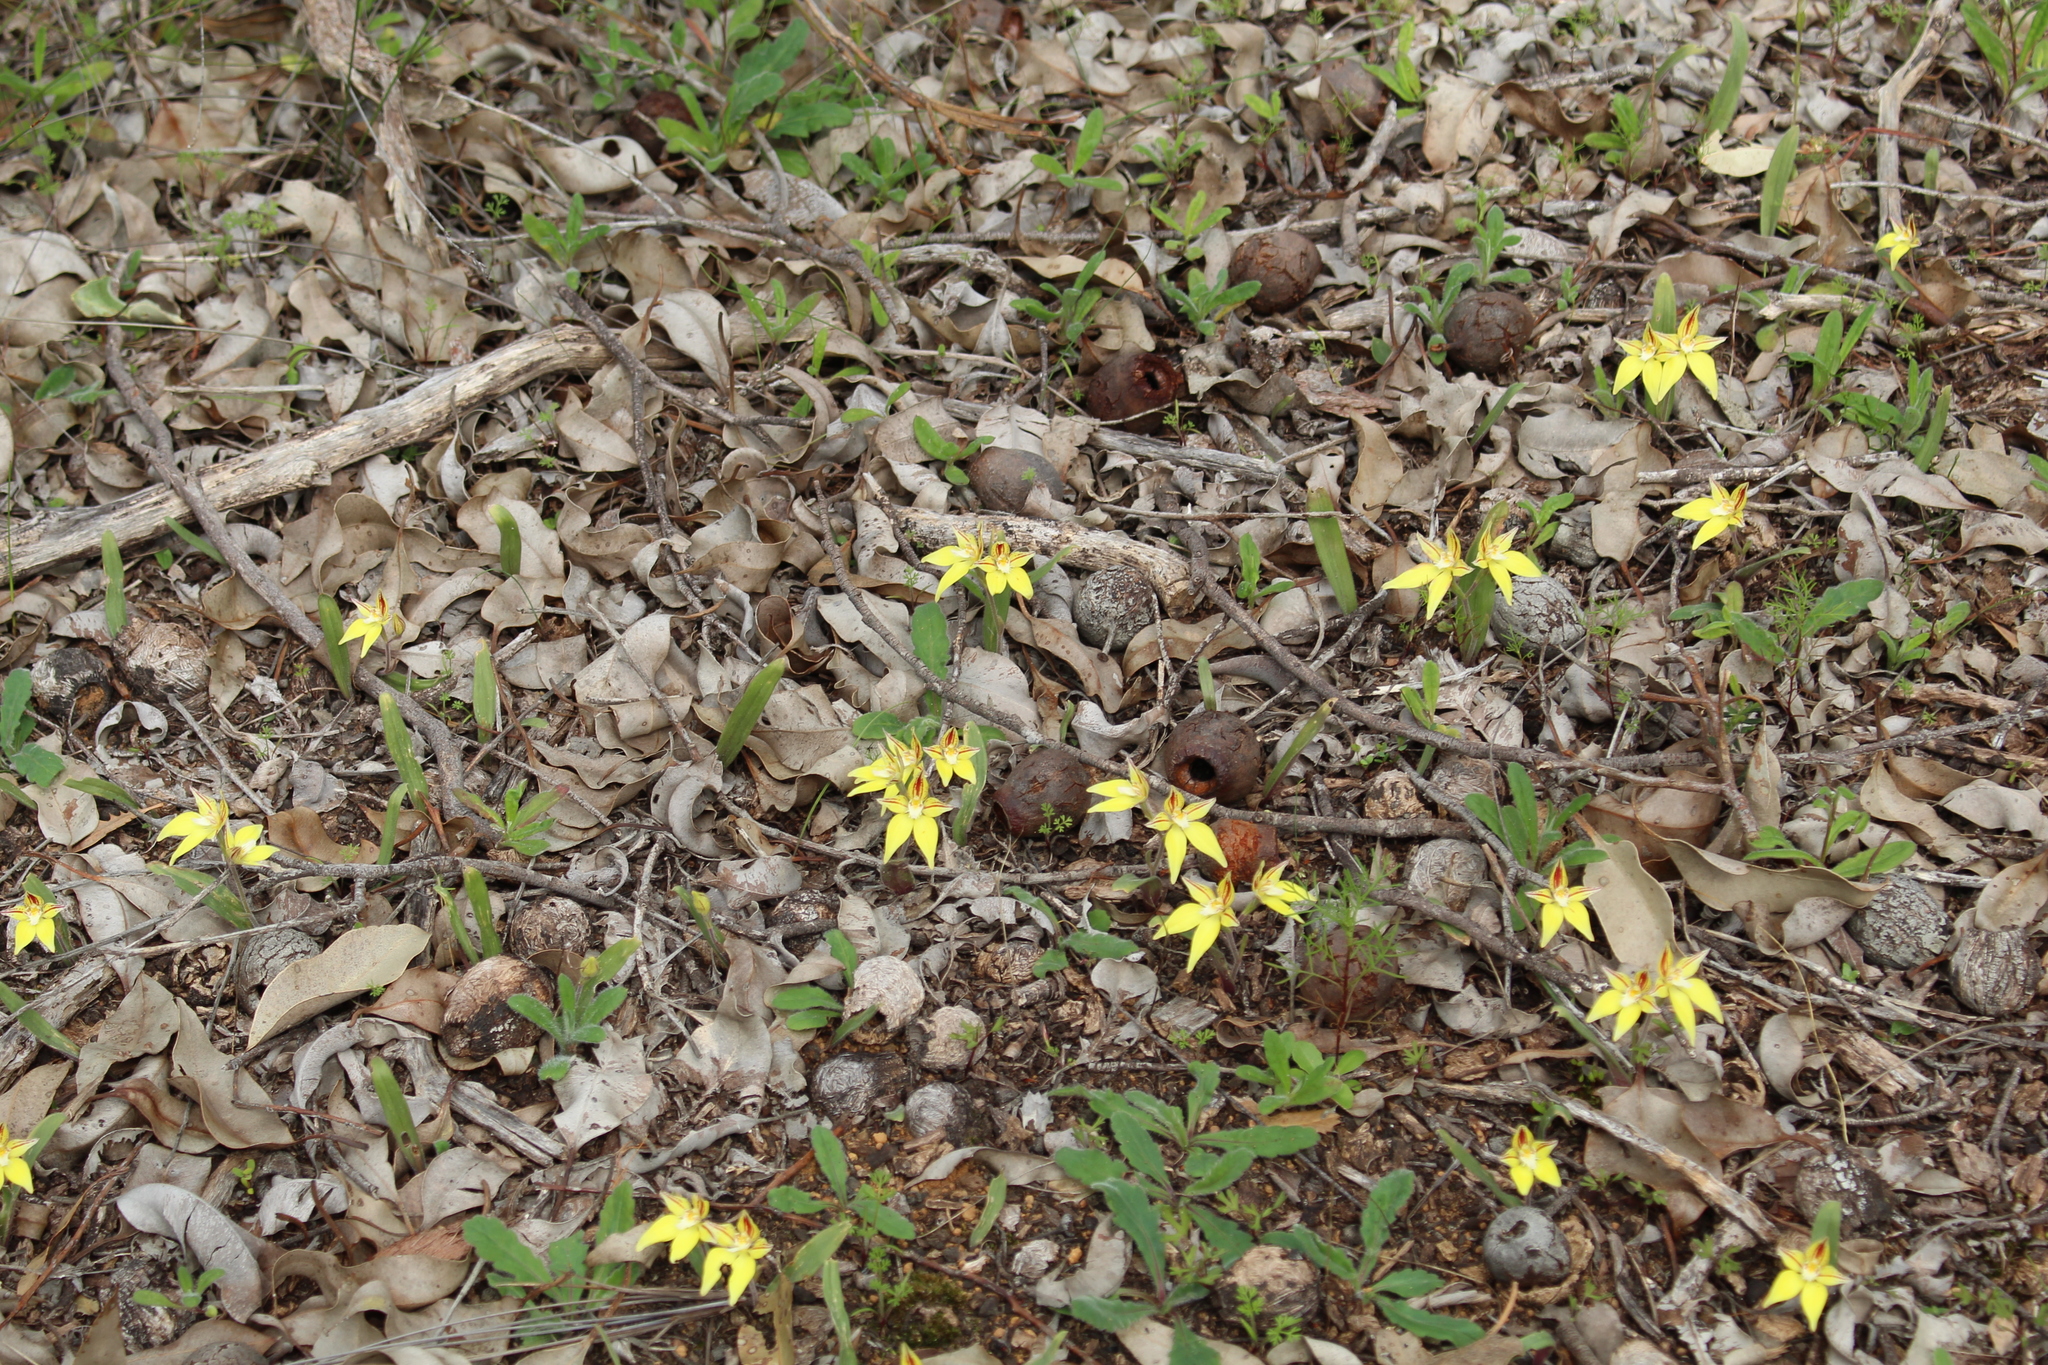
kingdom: Plantae
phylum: Tracheophyta
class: Liliopsida
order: Asparagales
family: Orchidaceae
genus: Caladenia
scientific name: Caladenia flava
